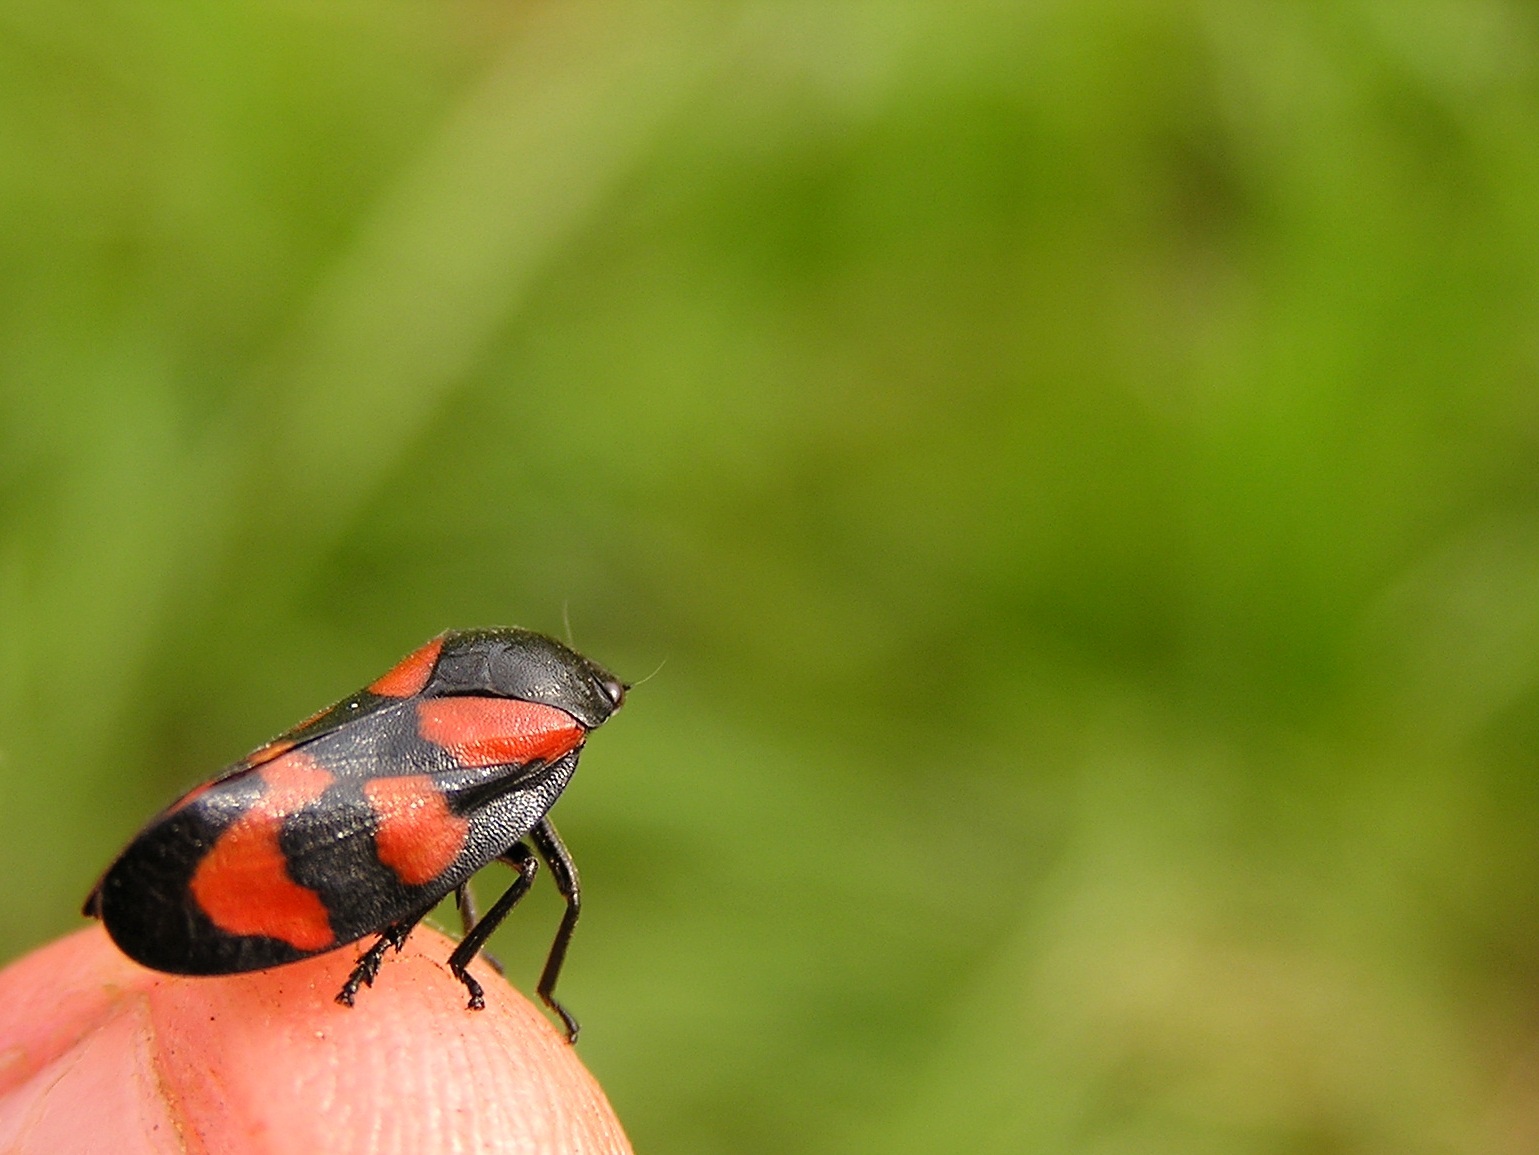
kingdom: Animalia
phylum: Arthropoda
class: Insecta
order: Hemiptera
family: Cercopidae
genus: Cercopis
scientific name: Cercopis vulnerata
